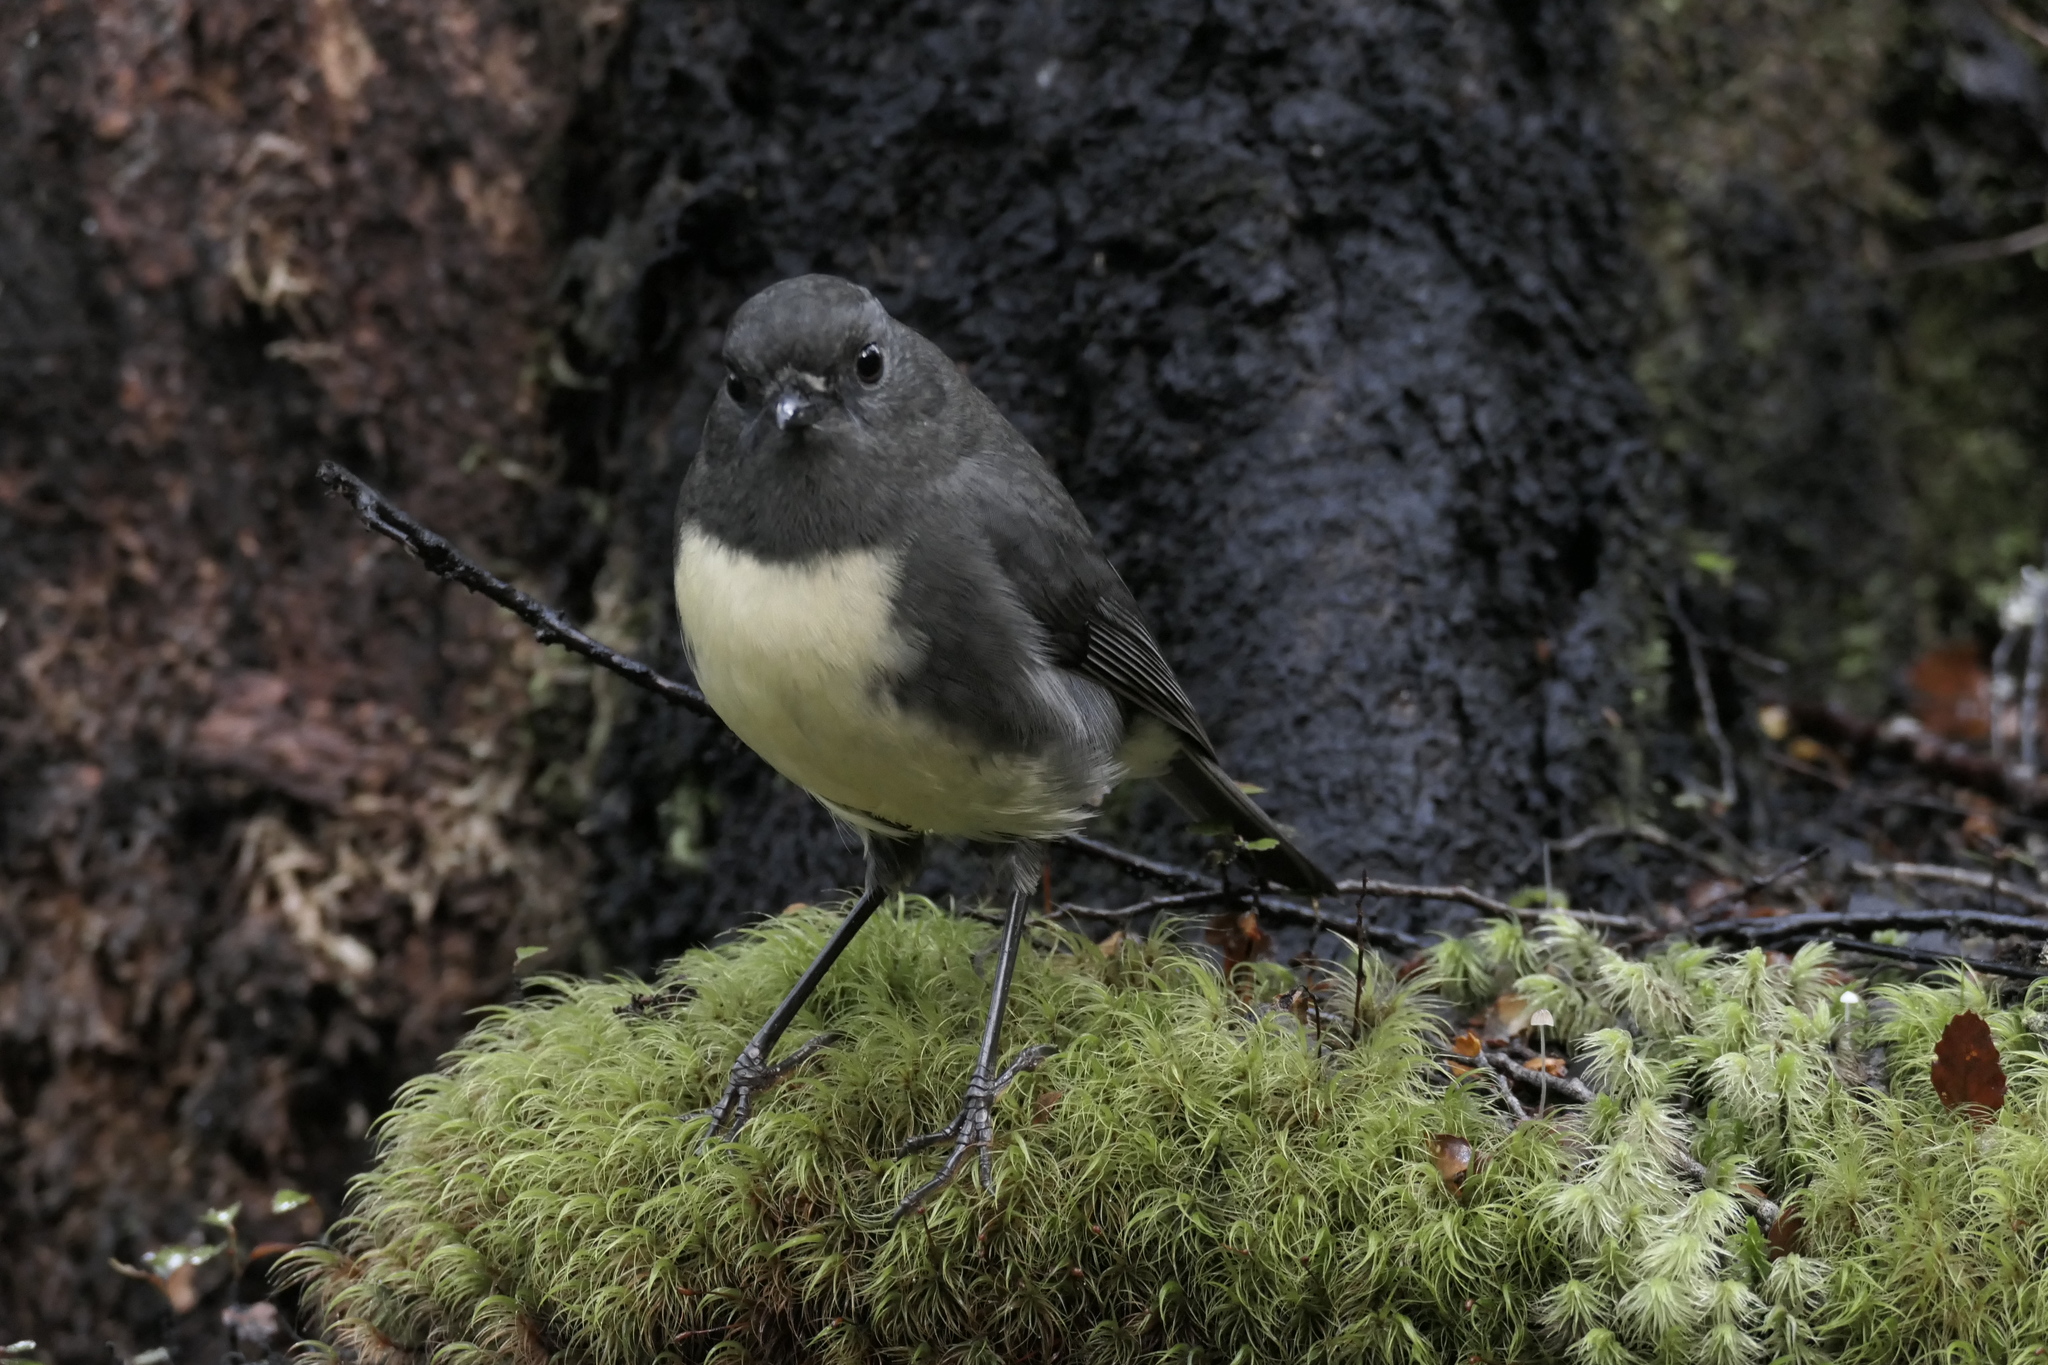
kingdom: Animalia
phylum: Chordata
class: Aves
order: Passeriformes
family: Petroicidae
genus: Petroica
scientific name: Petroica australis
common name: New zealand robin
